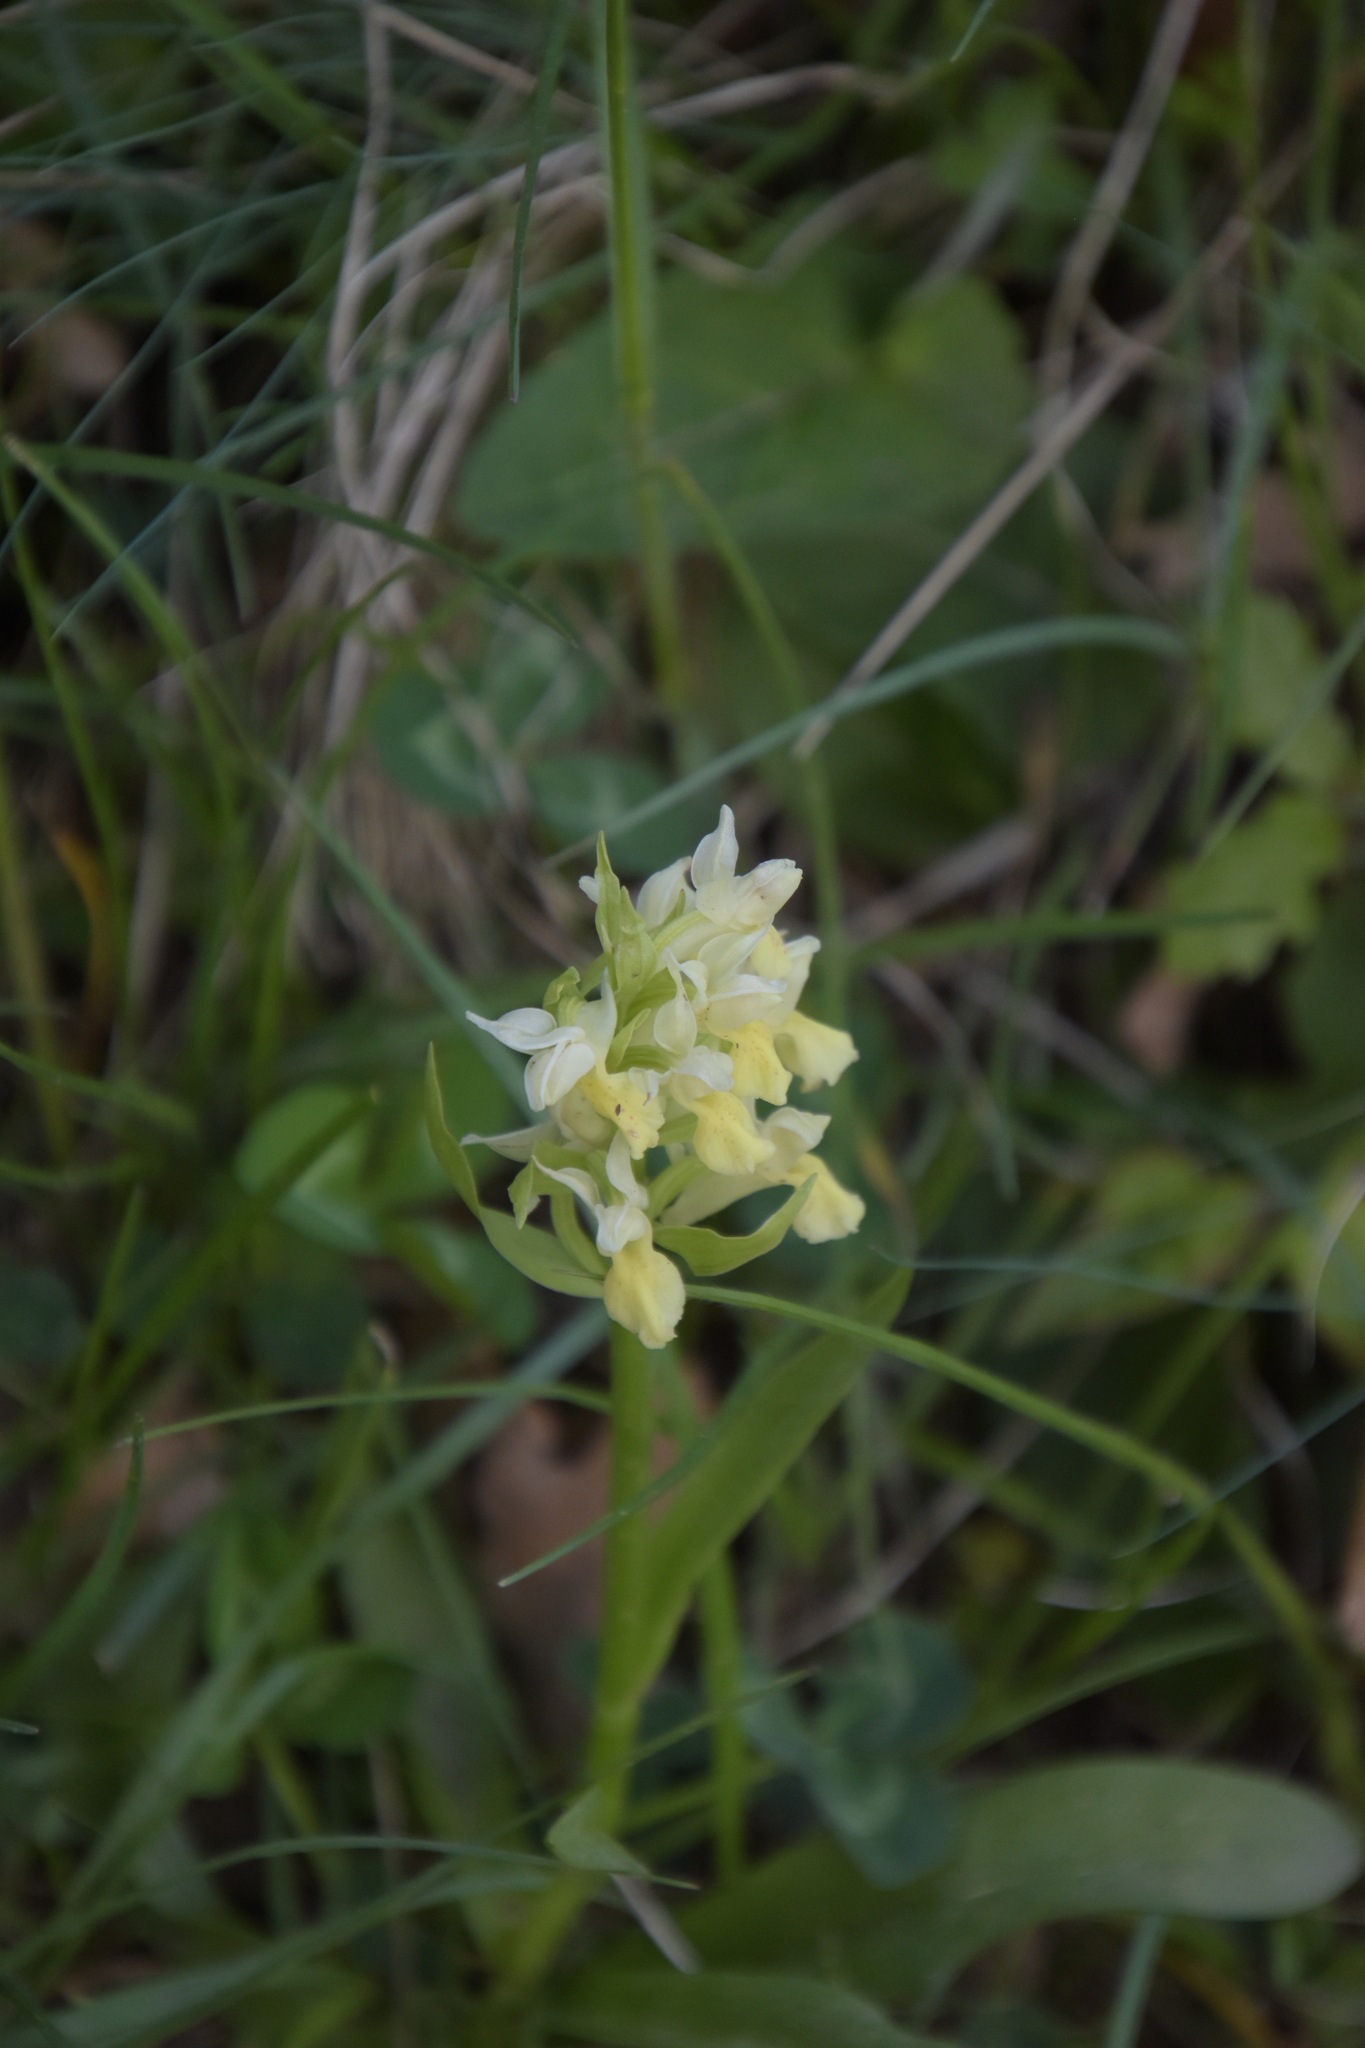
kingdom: Plantae
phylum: Tracheophyta
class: Liliopsida
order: Asparagales
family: Orchidaceae
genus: Dactylorhiza
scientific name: Dactylorhiza sambucina
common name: Elder-flowered orchid
